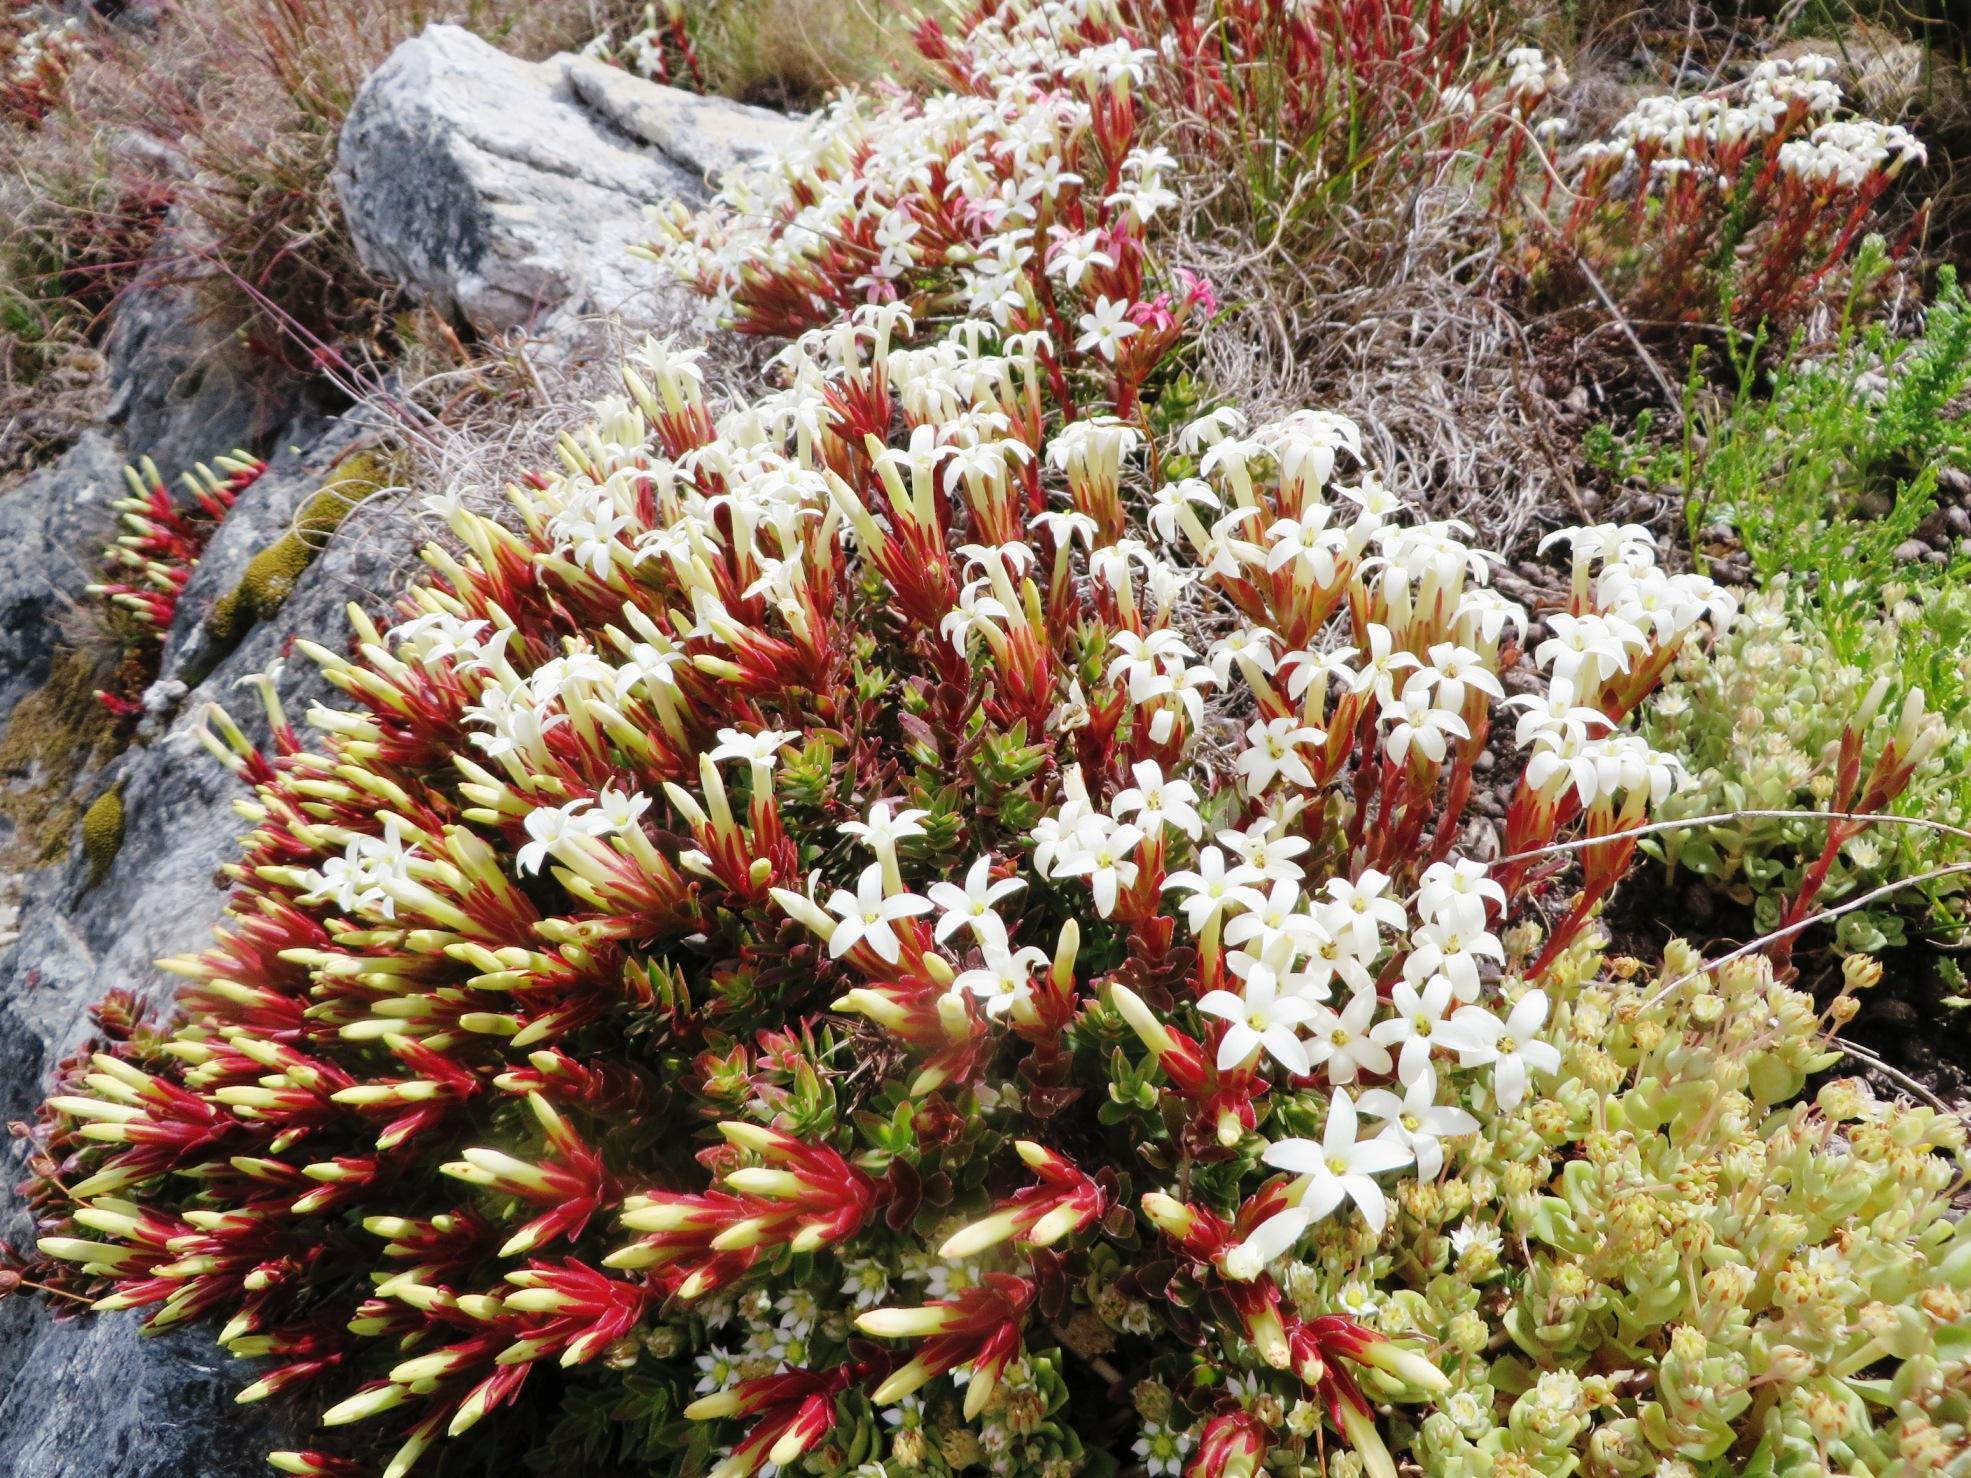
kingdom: Plantae
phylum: Tracheophyta
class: Magnoliopsida
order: Saxifragales
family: Crassulaceae
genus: Crassula
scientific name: Crassula obtusa
